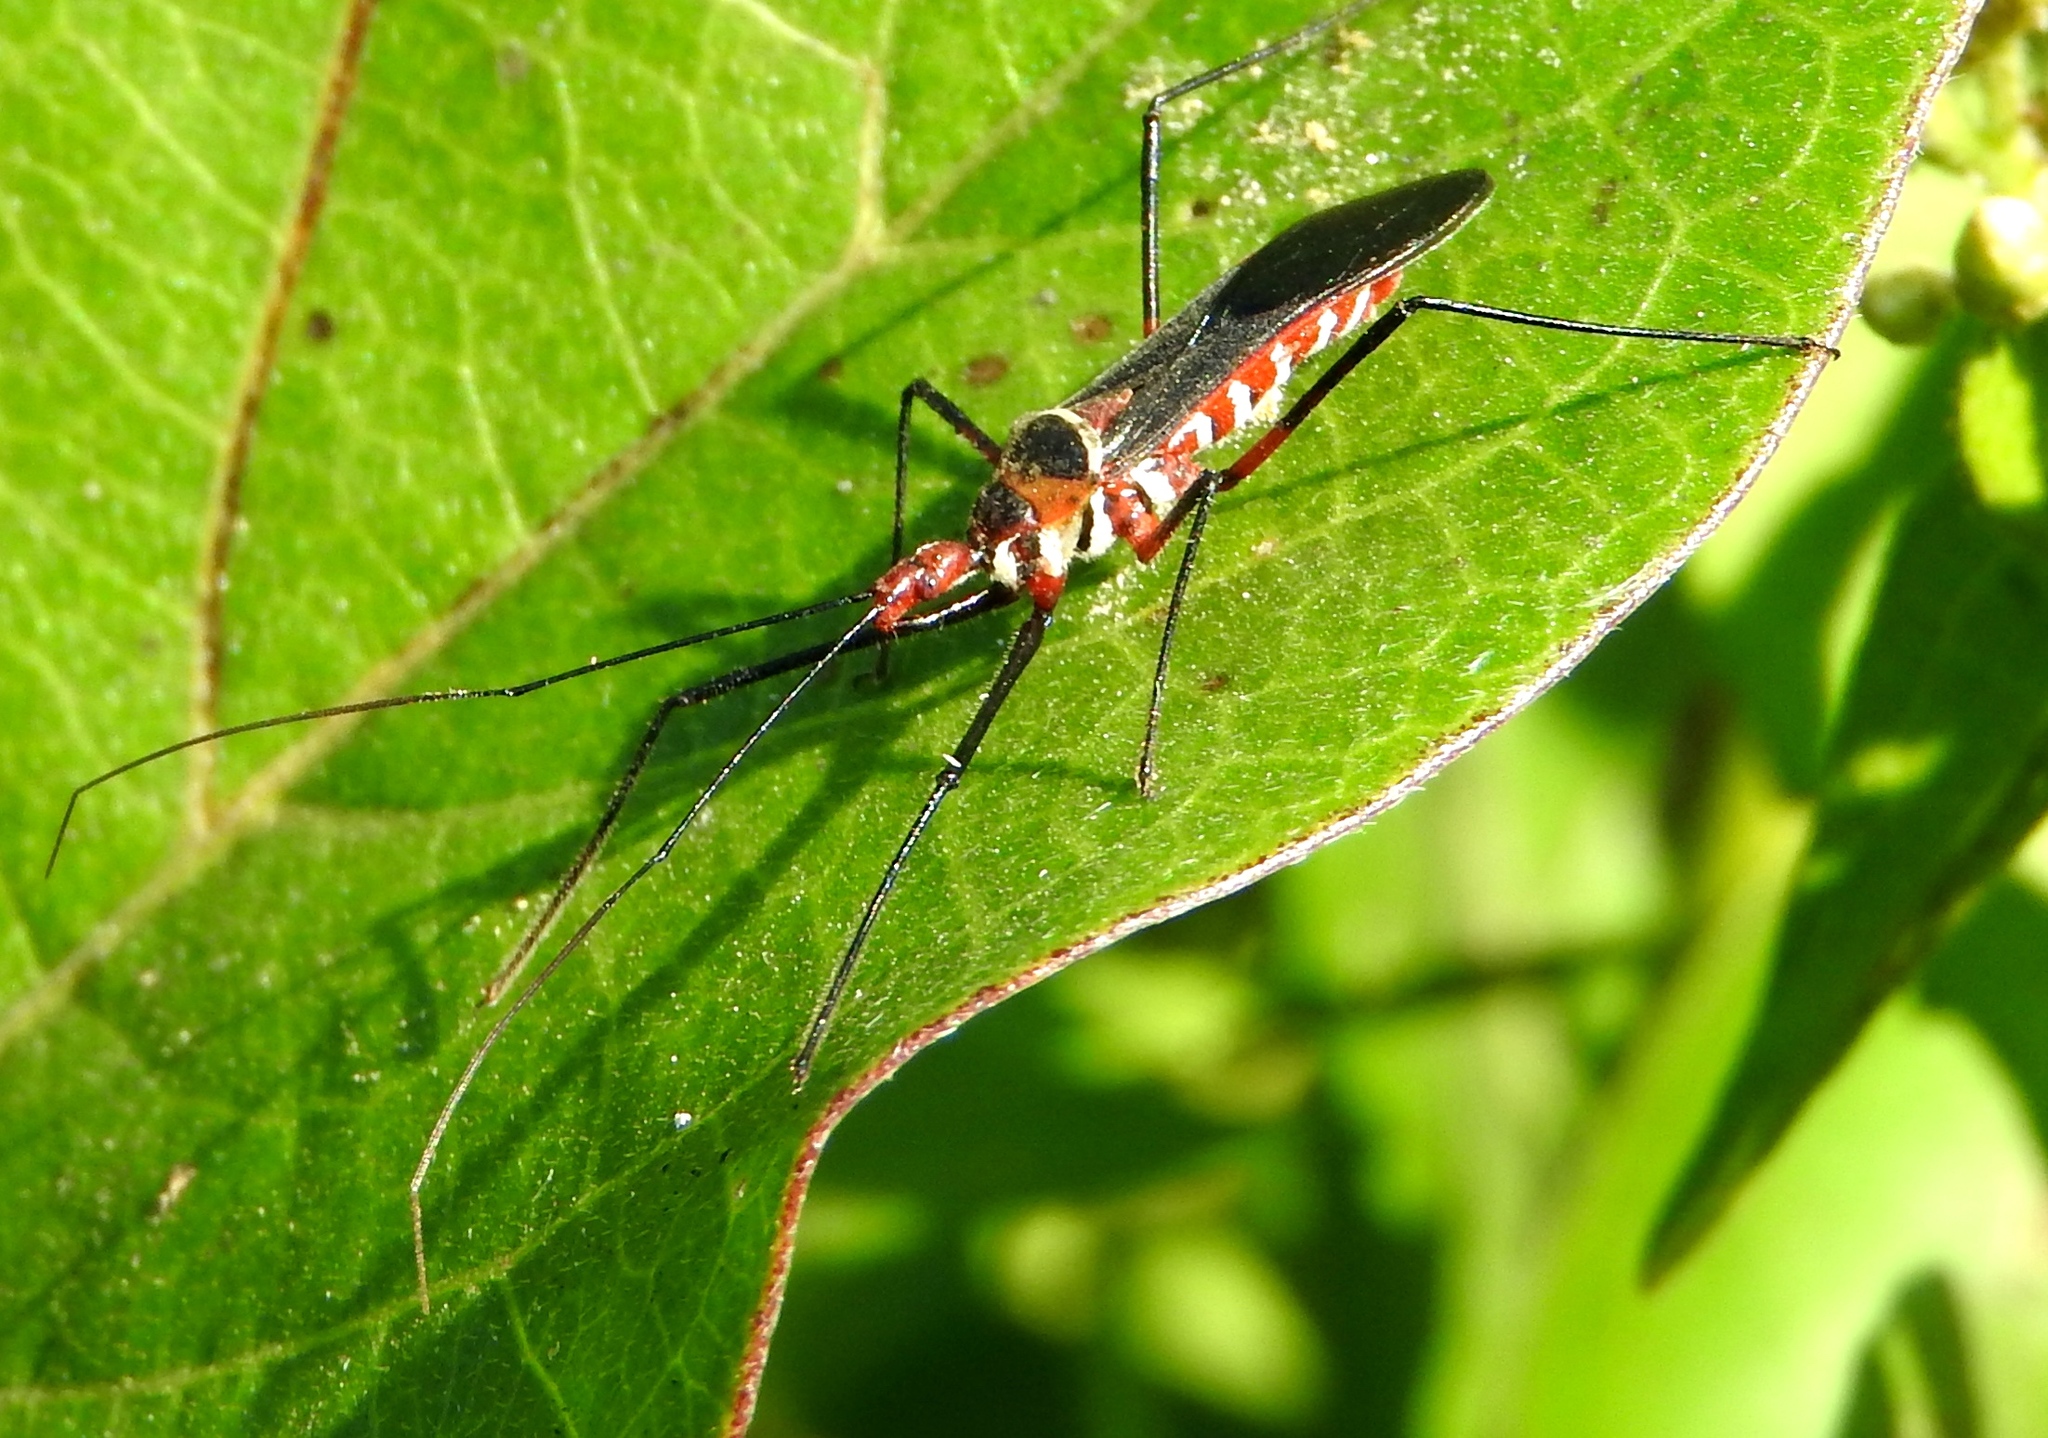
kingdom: Animalia
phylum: Arthropoda
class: Insecta
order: Hemiptera
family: Reduviidae
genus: Zelus
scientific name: Zelus grassans
